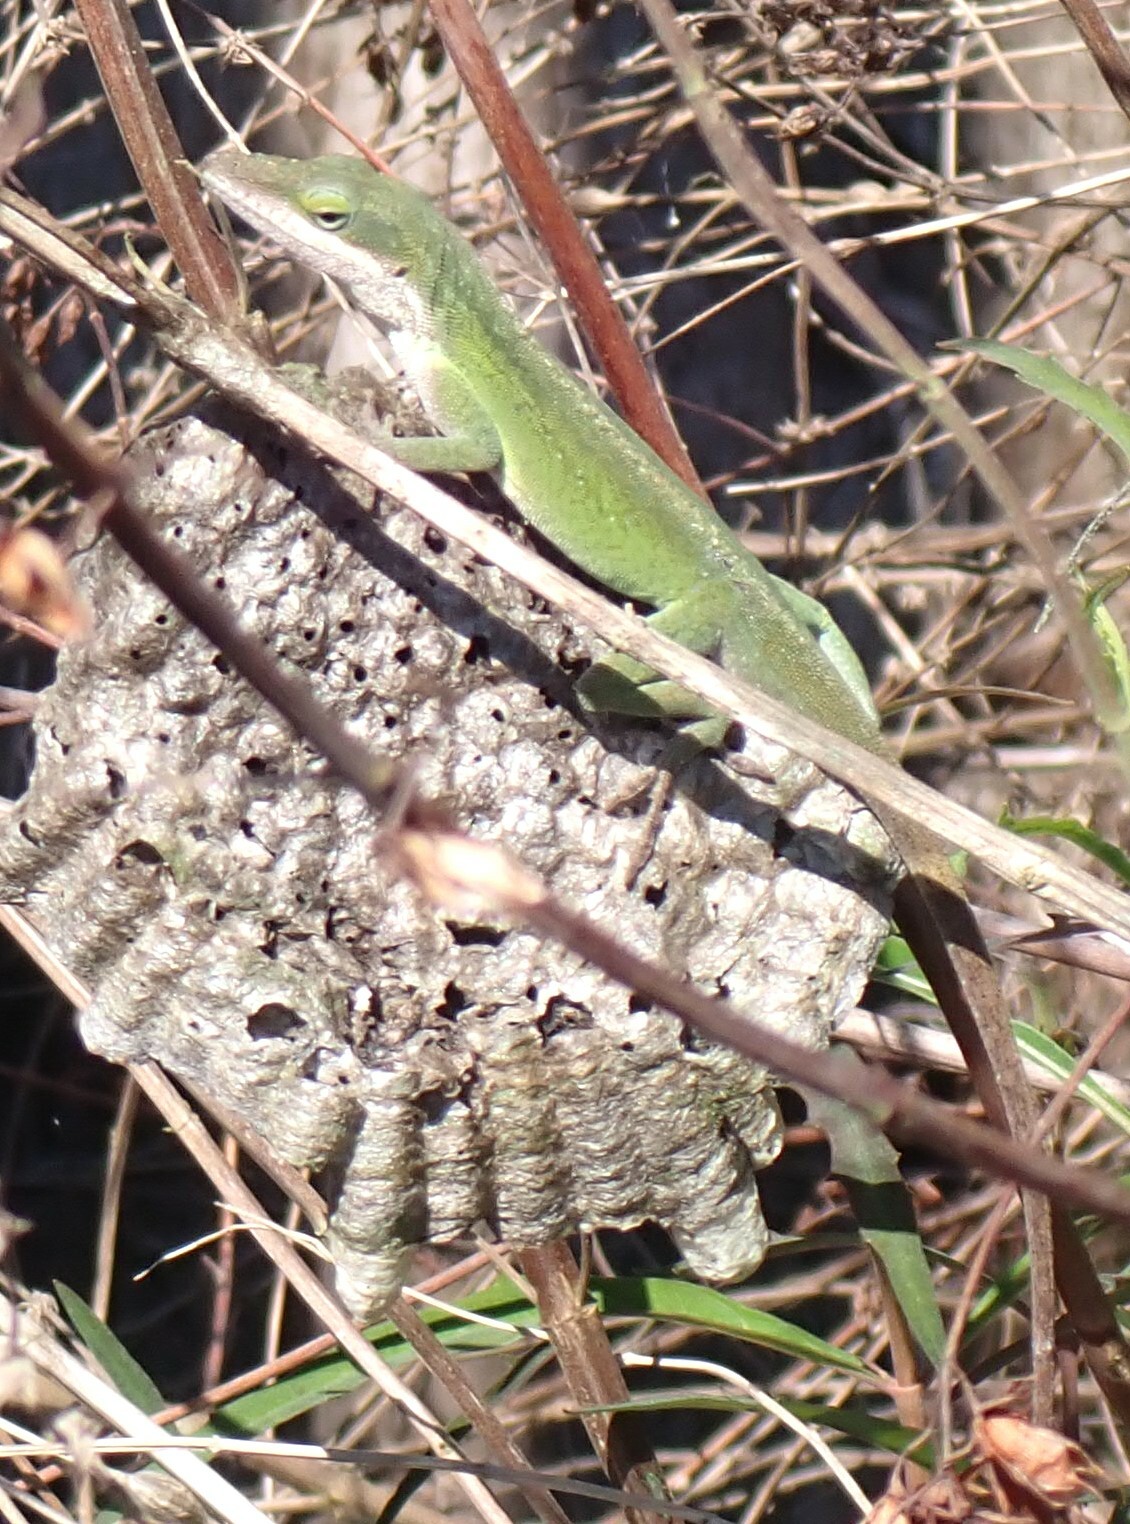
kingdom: Animalia
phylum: Chordata
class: Squamata
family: Dactyloidae
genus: Anolis
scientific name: Anolis carolinensis
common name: Green anole
